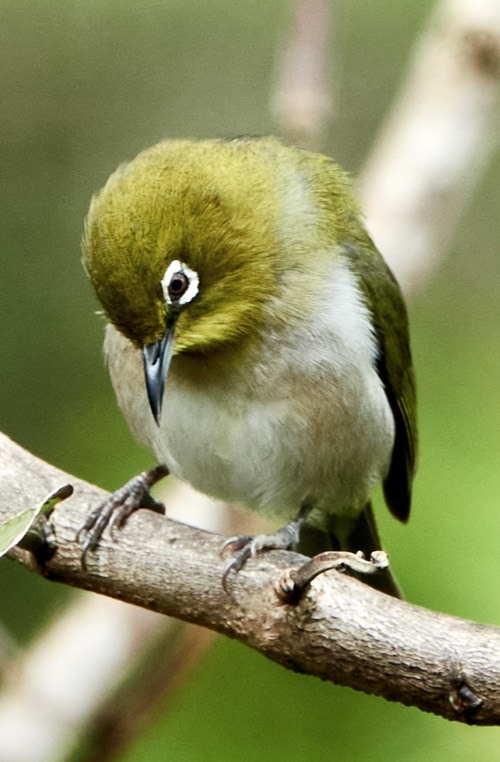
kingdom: Animalia
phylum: Chordata
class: Aves
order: Passeriformes
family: Zosteropidae
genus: Zosterops
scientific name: Zosterops japonicus
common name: Japanese white-eye
